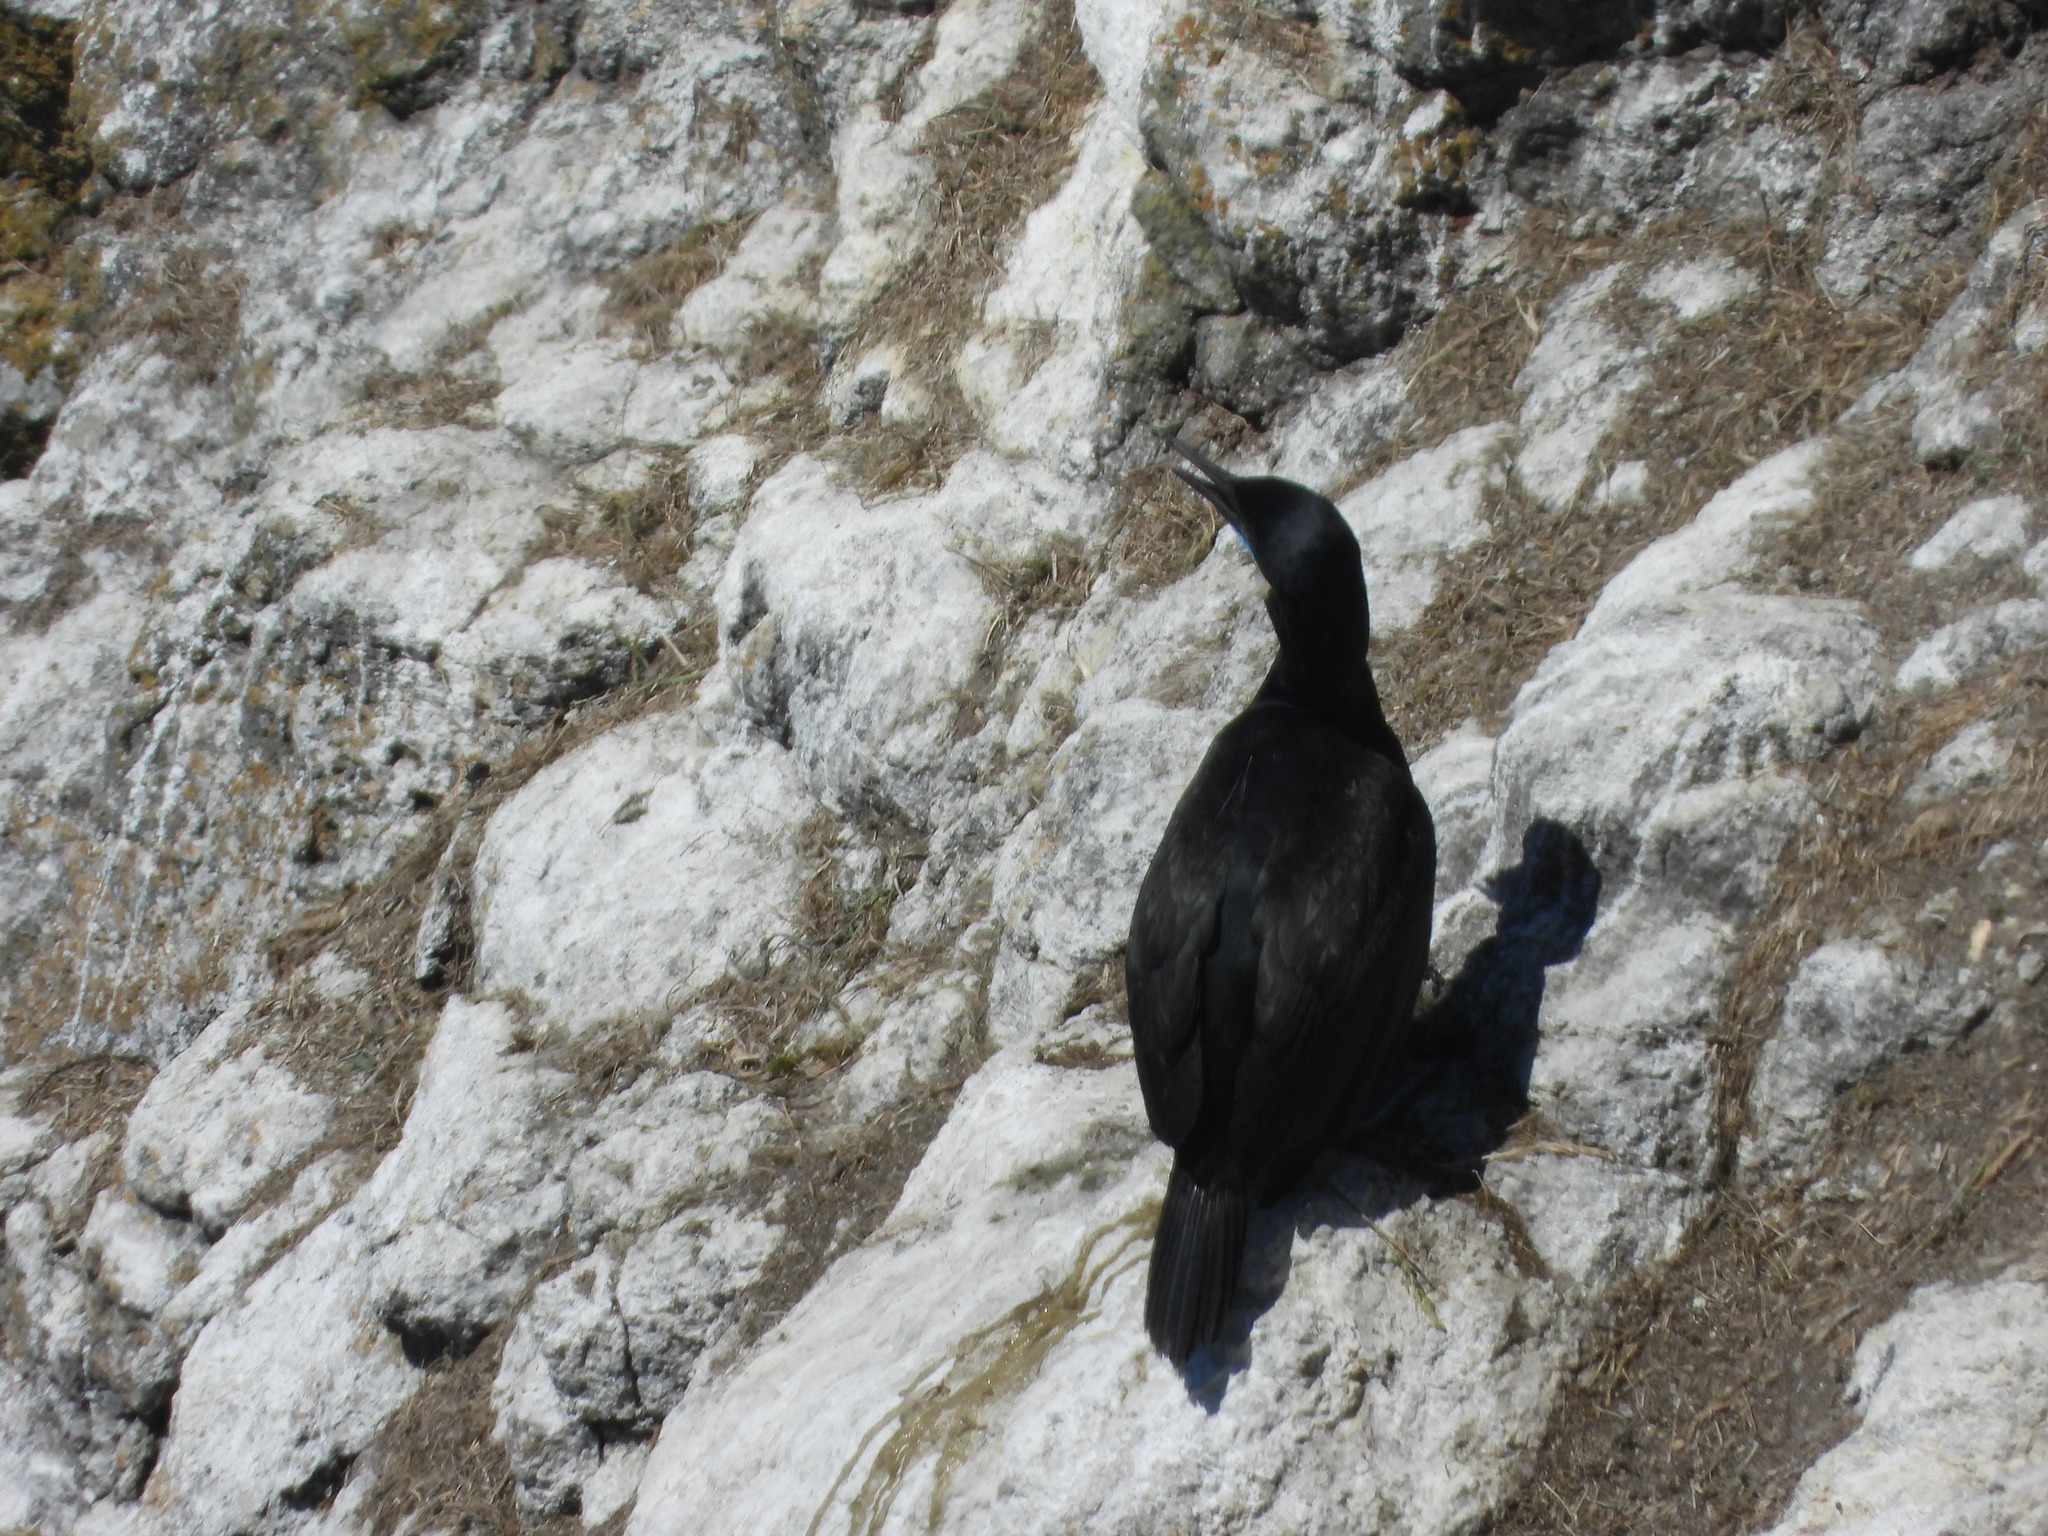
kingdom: Animalia
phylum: Chordata
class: Aves
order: Suliformes
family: Phalacrocoracidae
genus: Urile
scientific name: Urile penicillatus
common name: Brandt's cormorant
